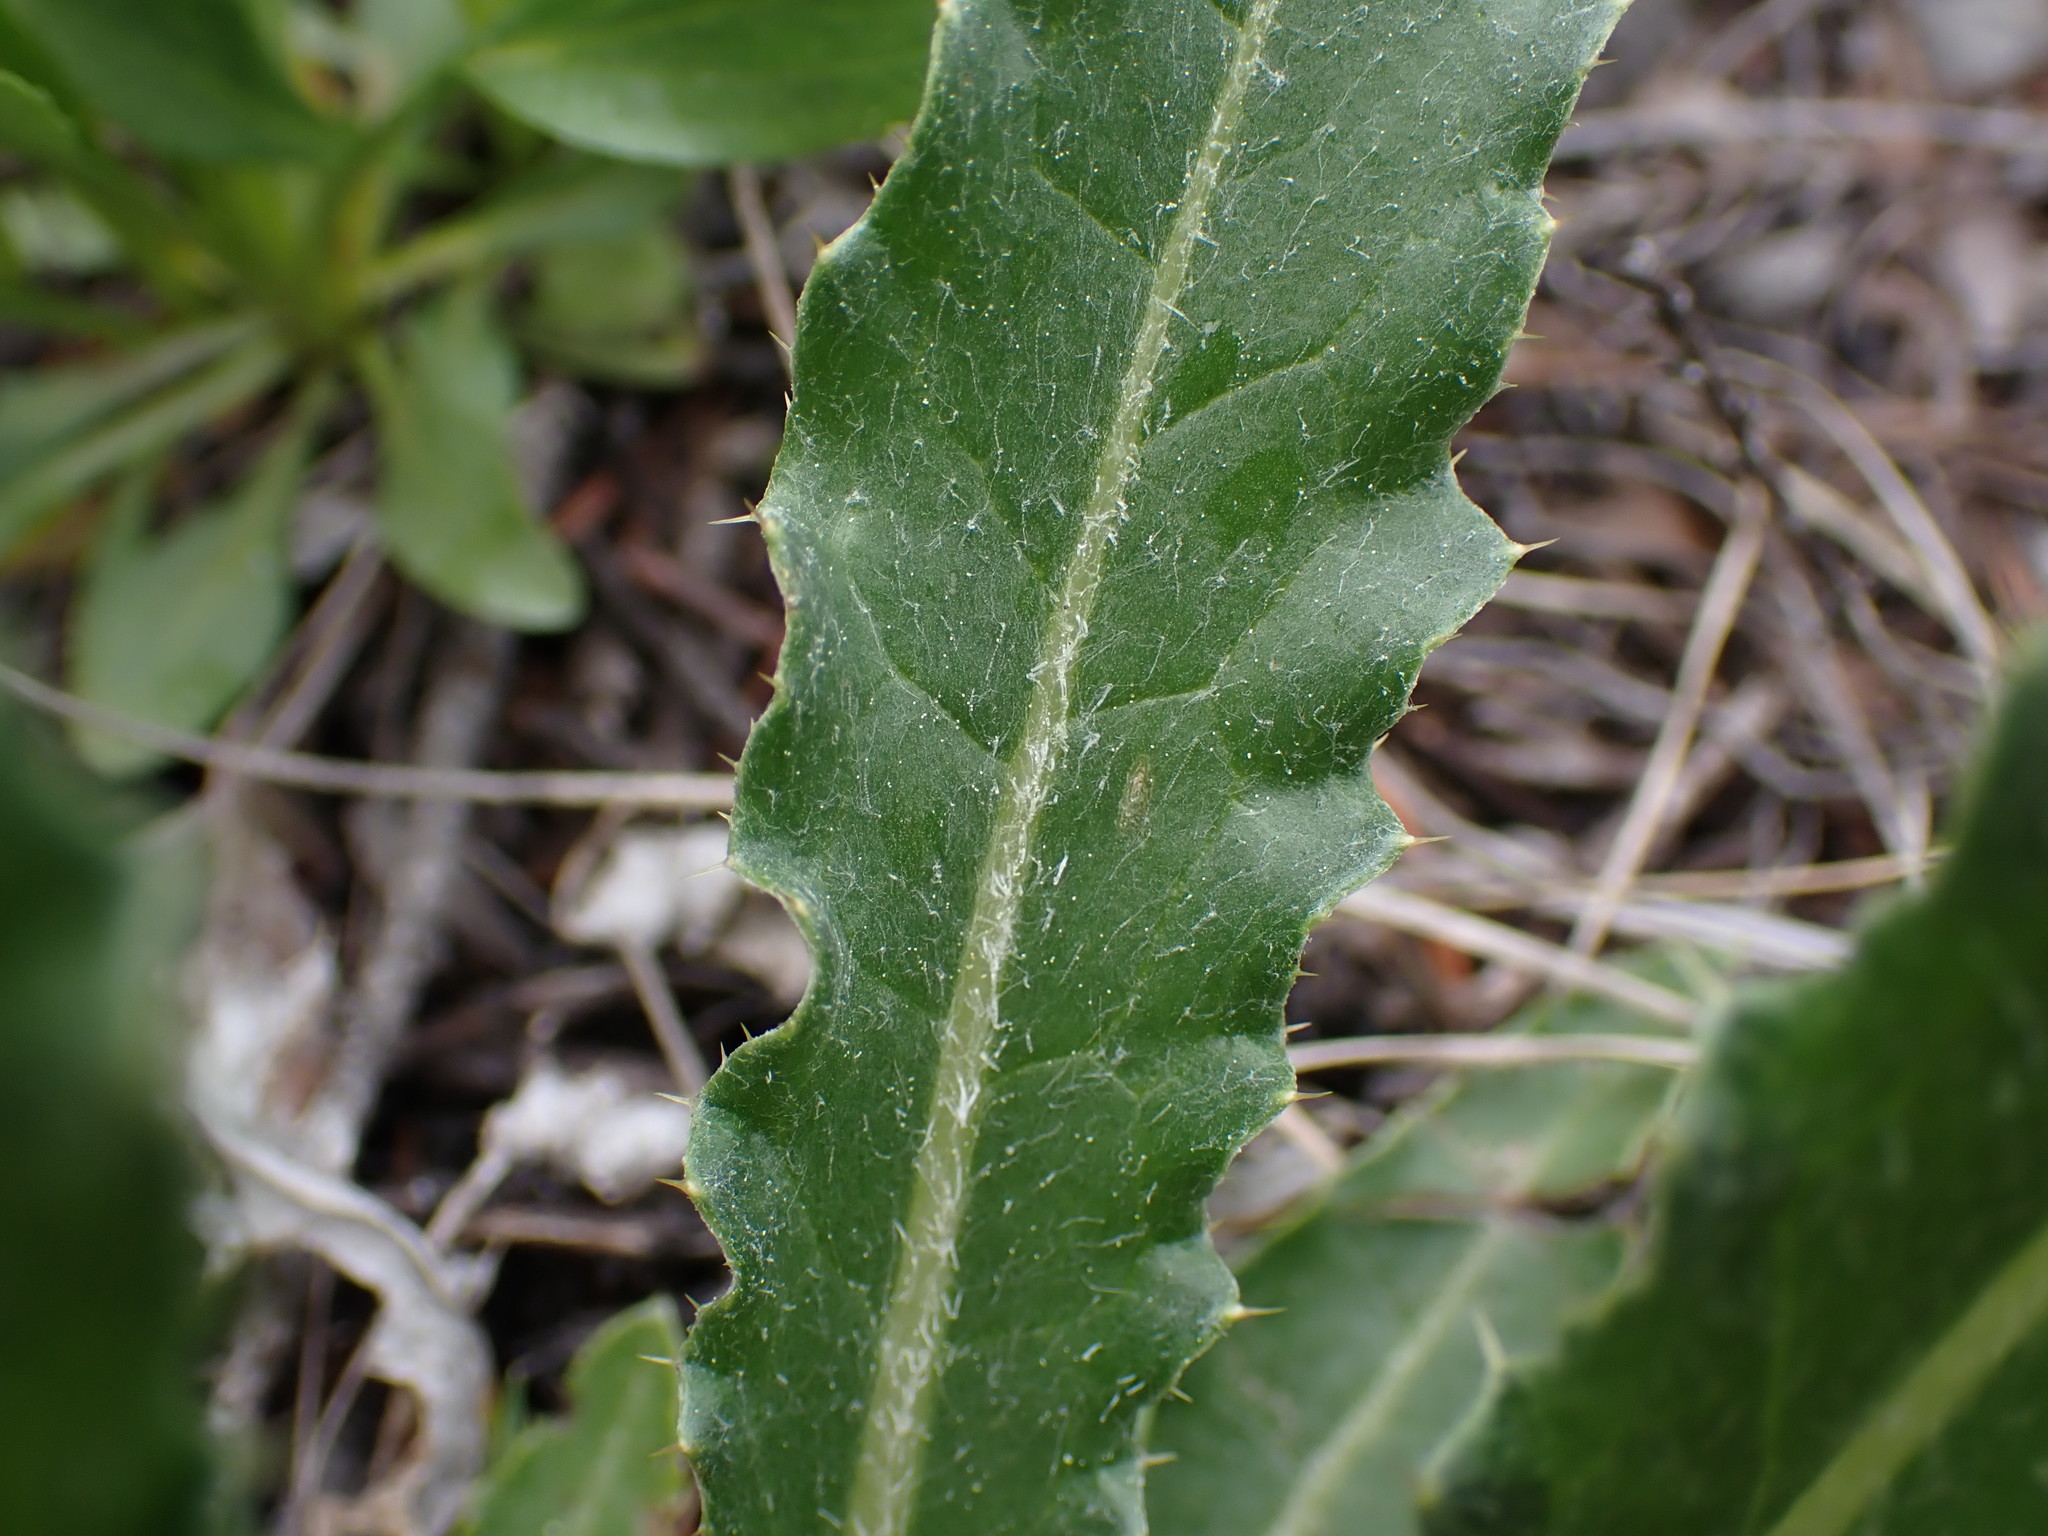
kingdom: Plantae
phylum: Tracheophyta
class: Magnoliopsida
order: Asterales
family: Asteraceae
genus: Cirsium
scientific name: Cirsium hookerianum
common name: Hooker's thistle
